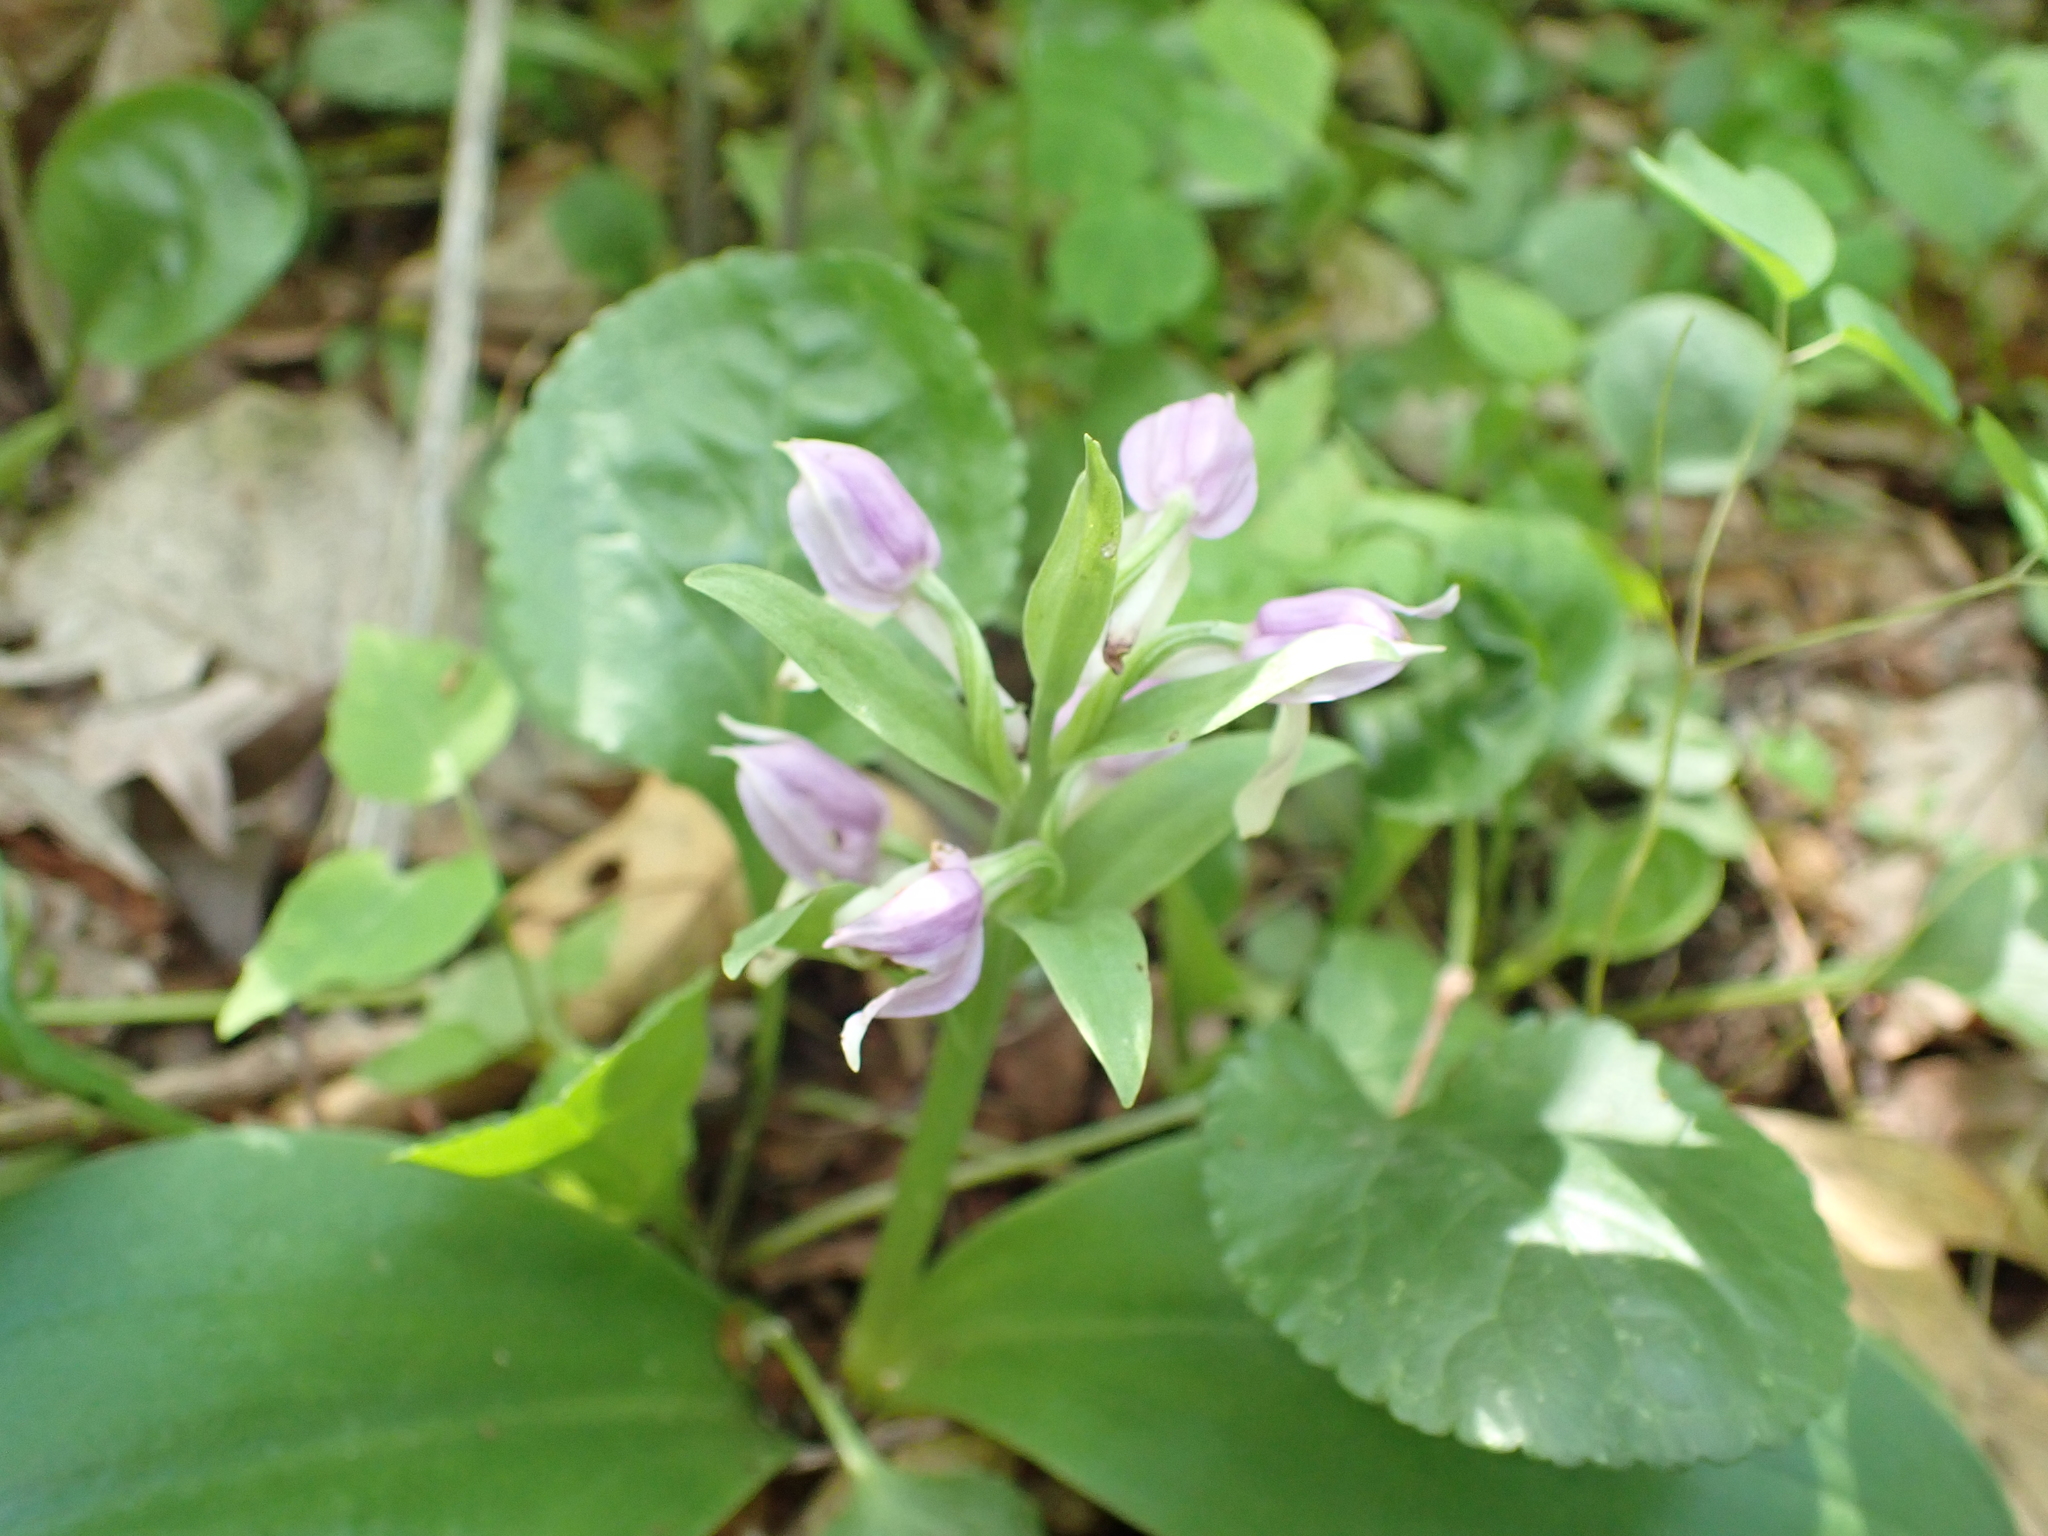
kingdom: Plantae
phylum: Tracheophyta
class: Liliopsida
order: Asparagales
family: Orchidaceae
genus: Galearis
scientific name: Galearis spectabilis
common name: Purple-hooded orchis
